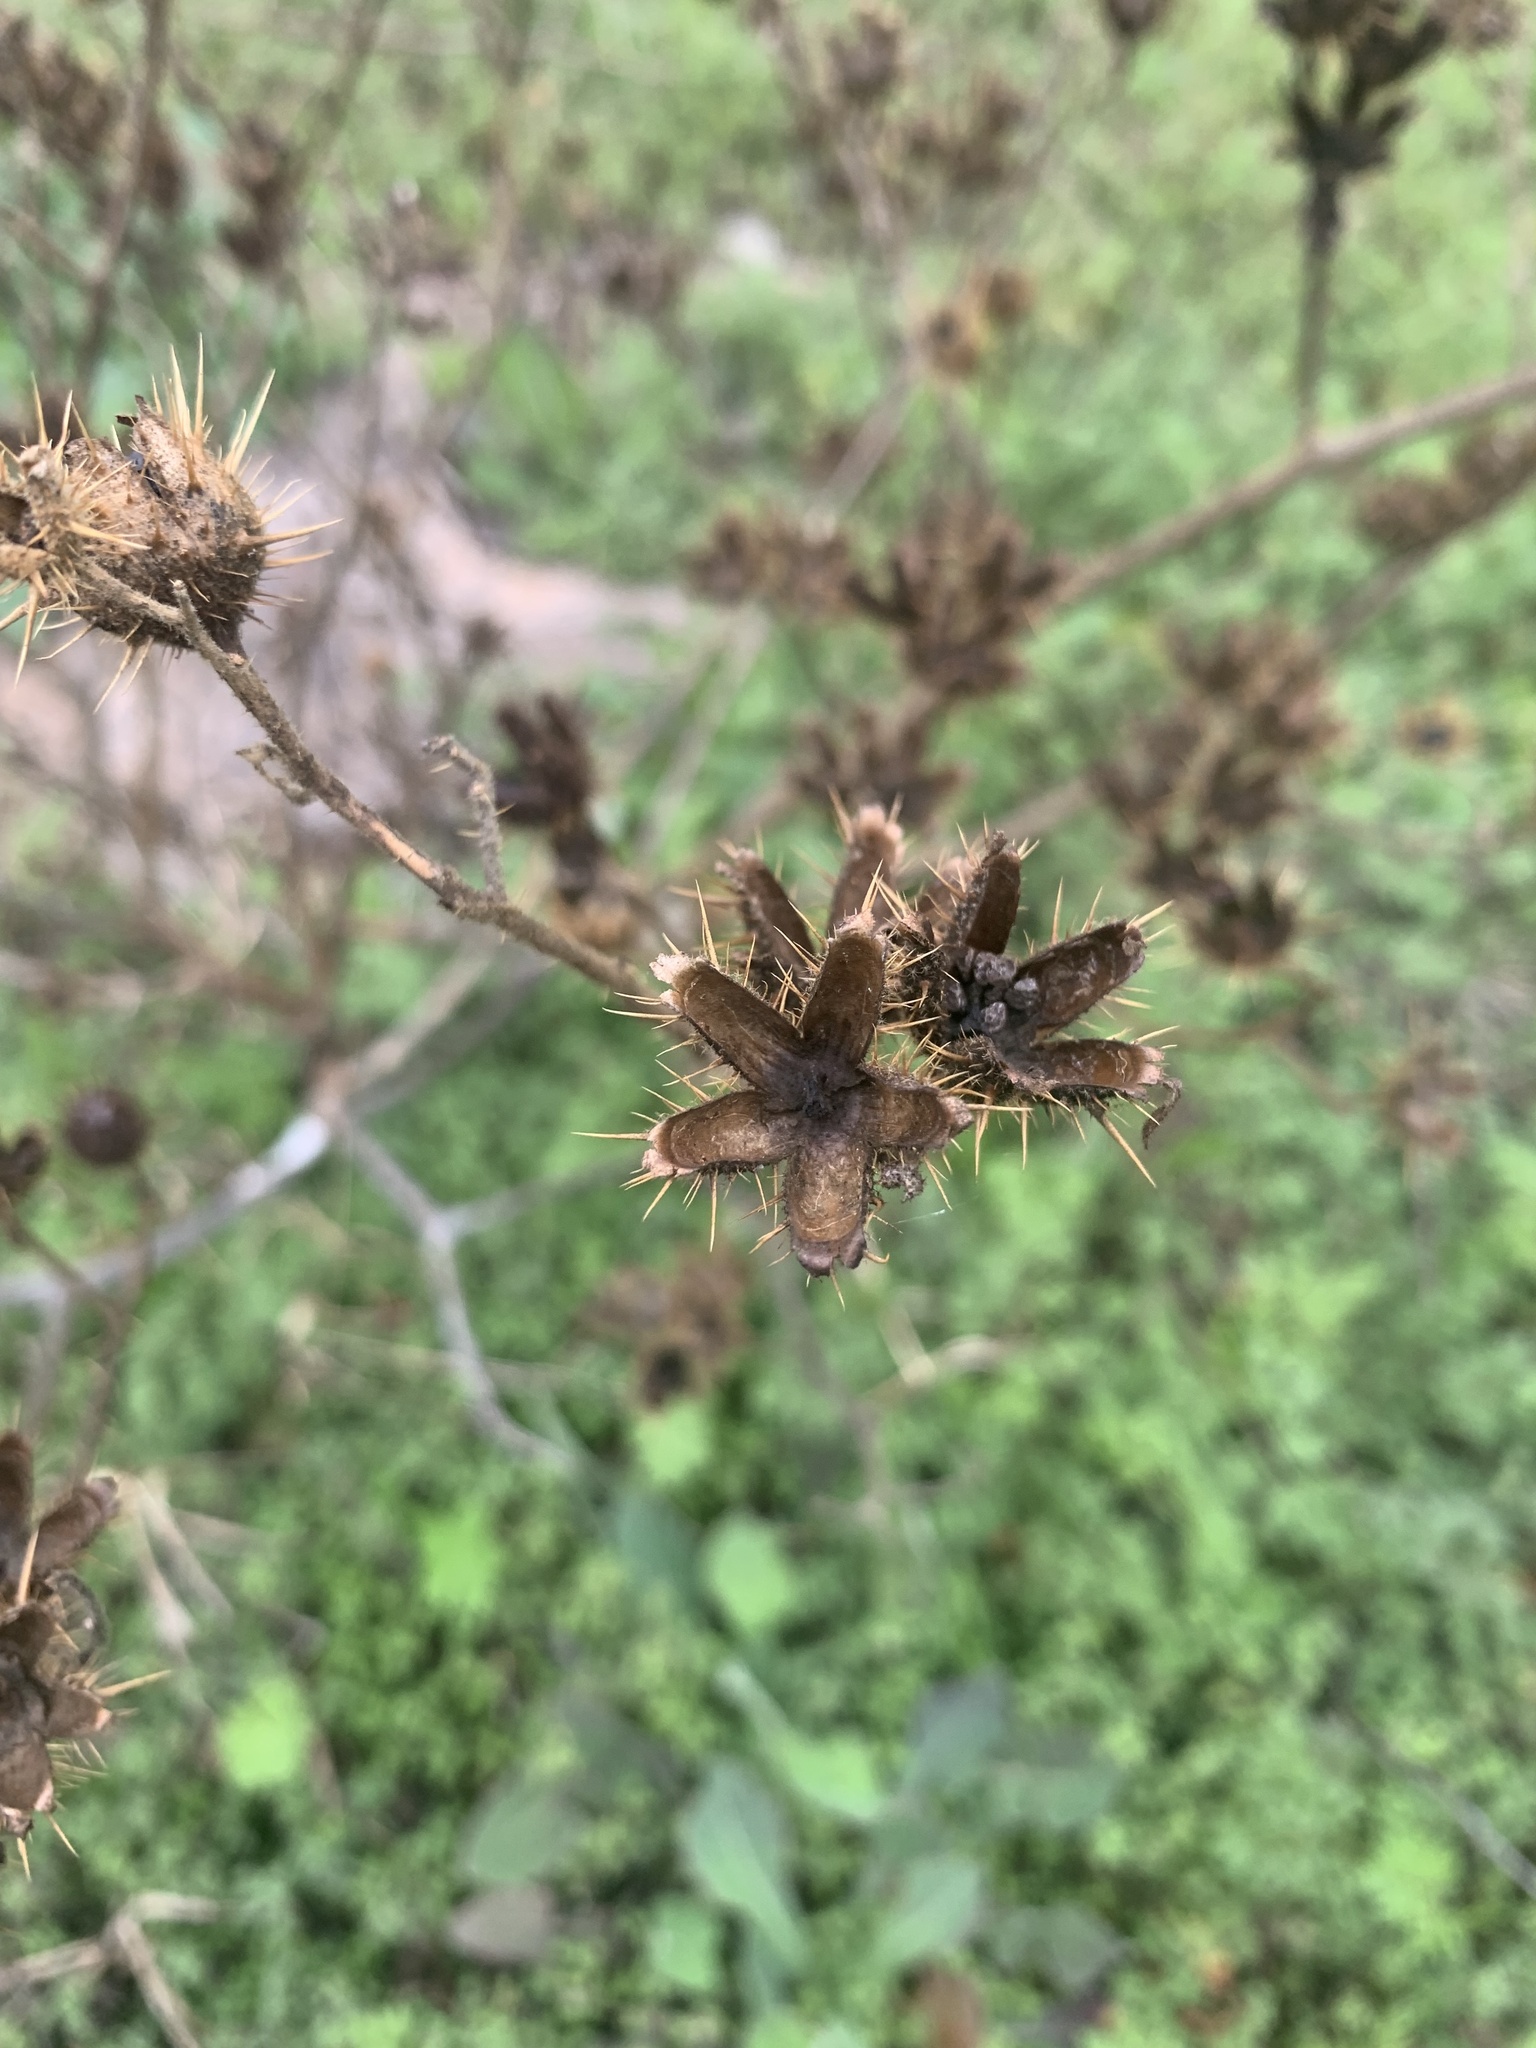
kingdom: Plantae
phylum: Tracheophyta
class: Magnoliopsida
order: Solanales
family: Solanaceae
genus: Solanum
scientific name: Solanum angustifolium
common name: Buffalobur nightshade
